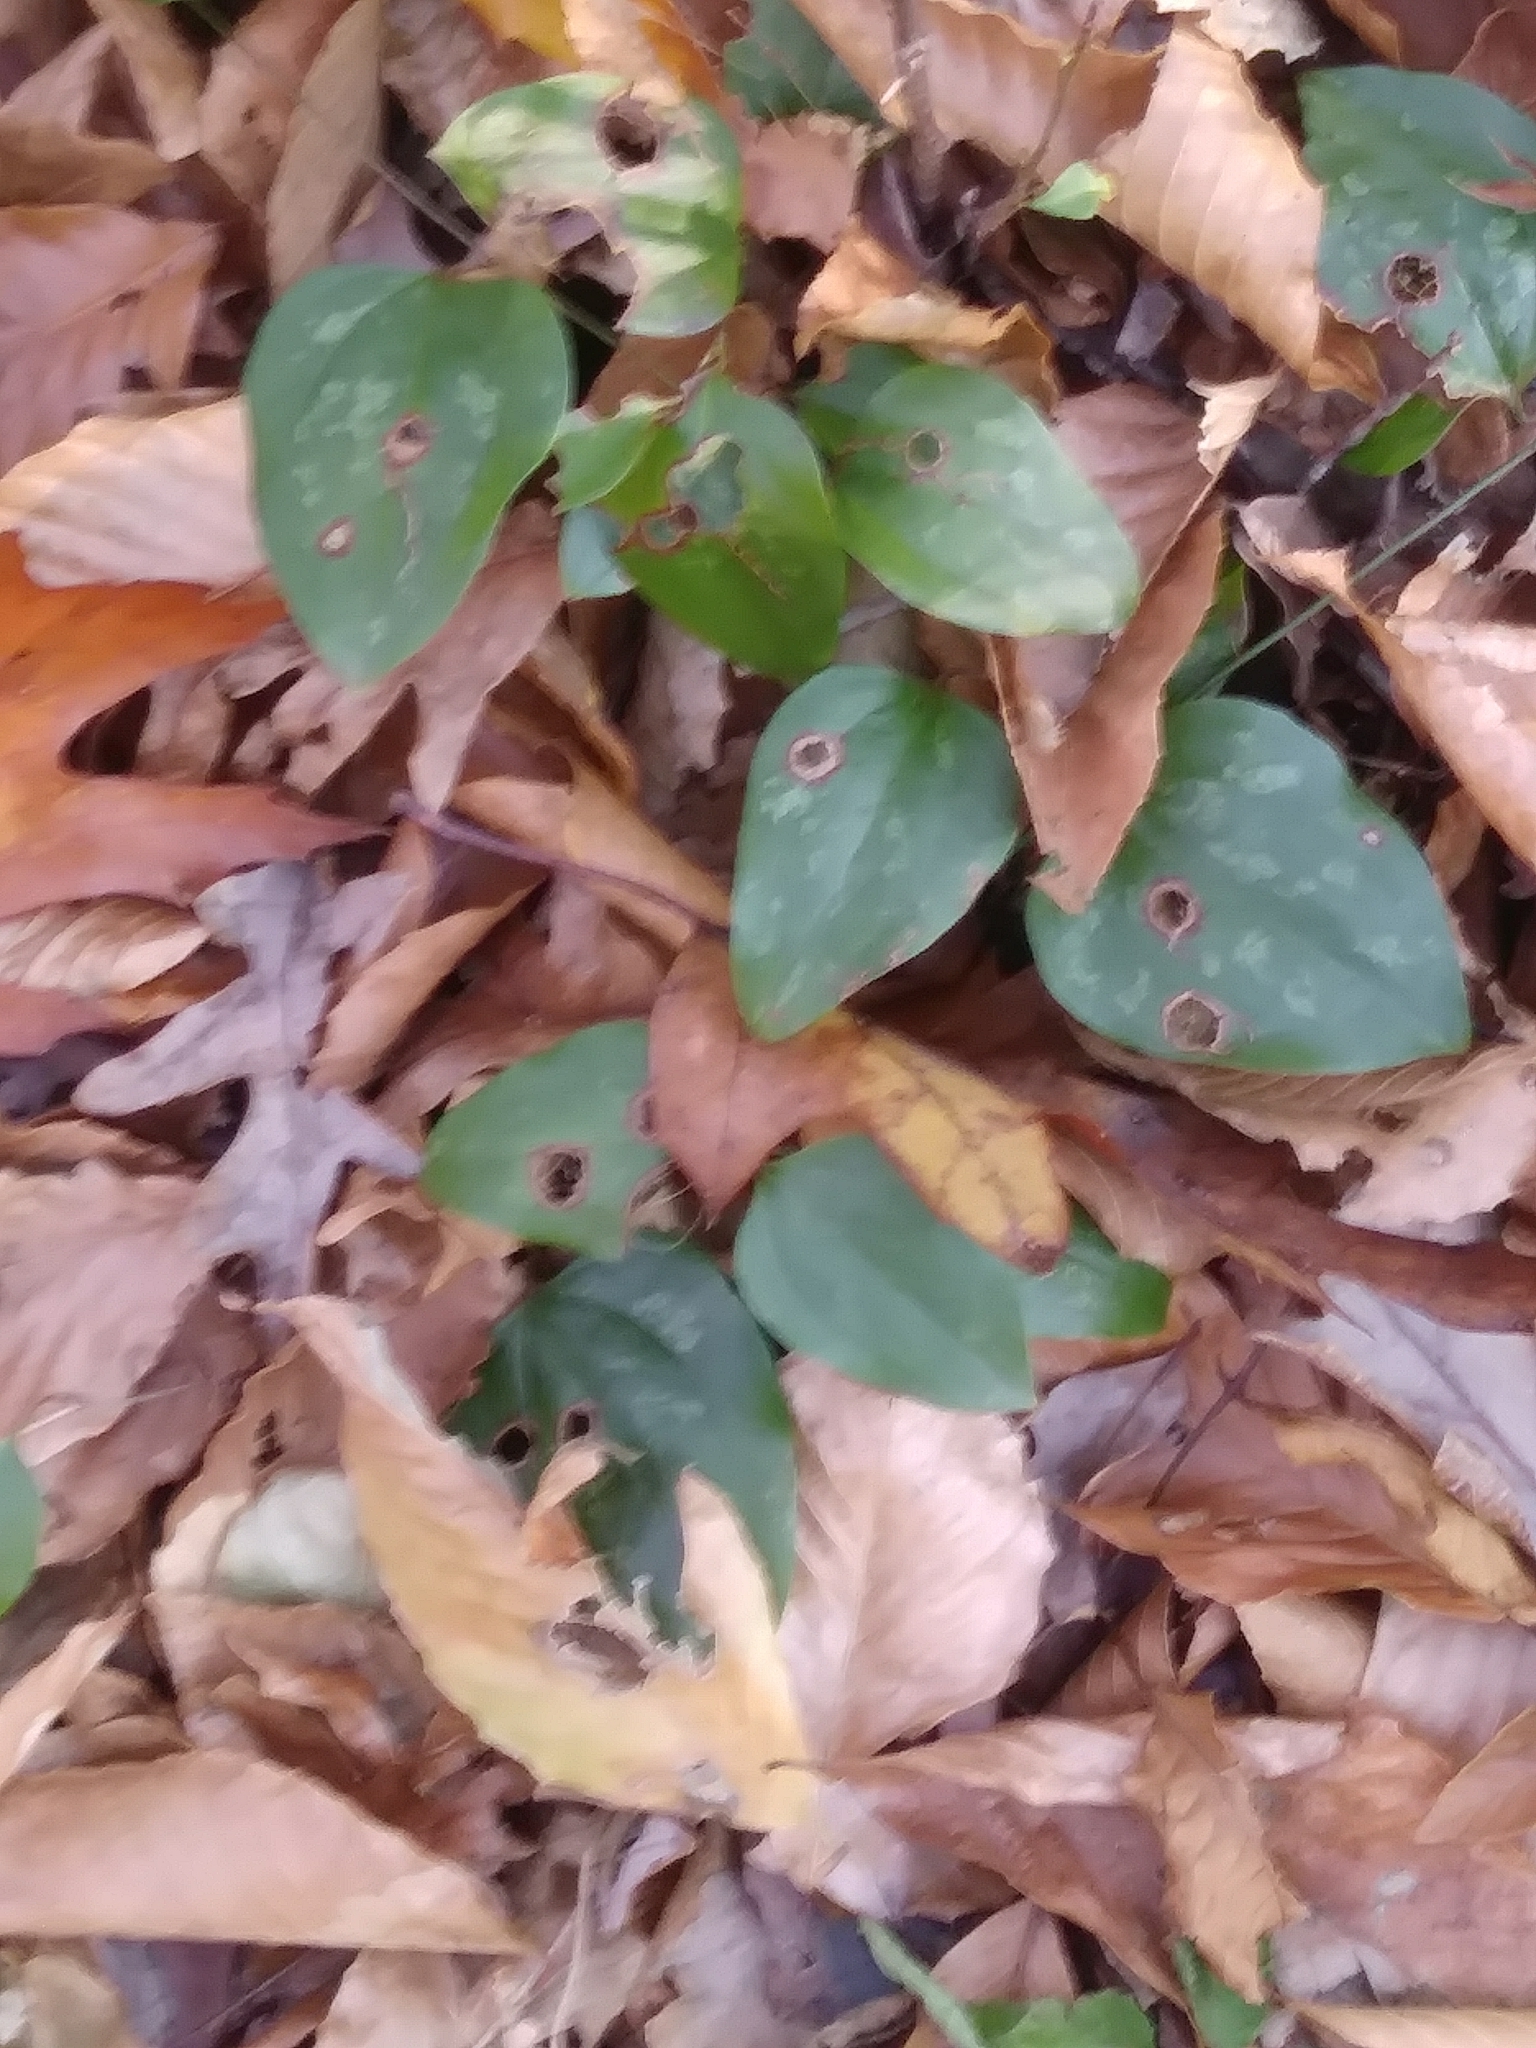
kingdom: Plantae
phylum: Tracheophyta
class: Liliopsida
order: Liliales
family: Smilacaceae
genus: Smilax
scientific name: Smilax glauca
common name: Cat greenbrier
